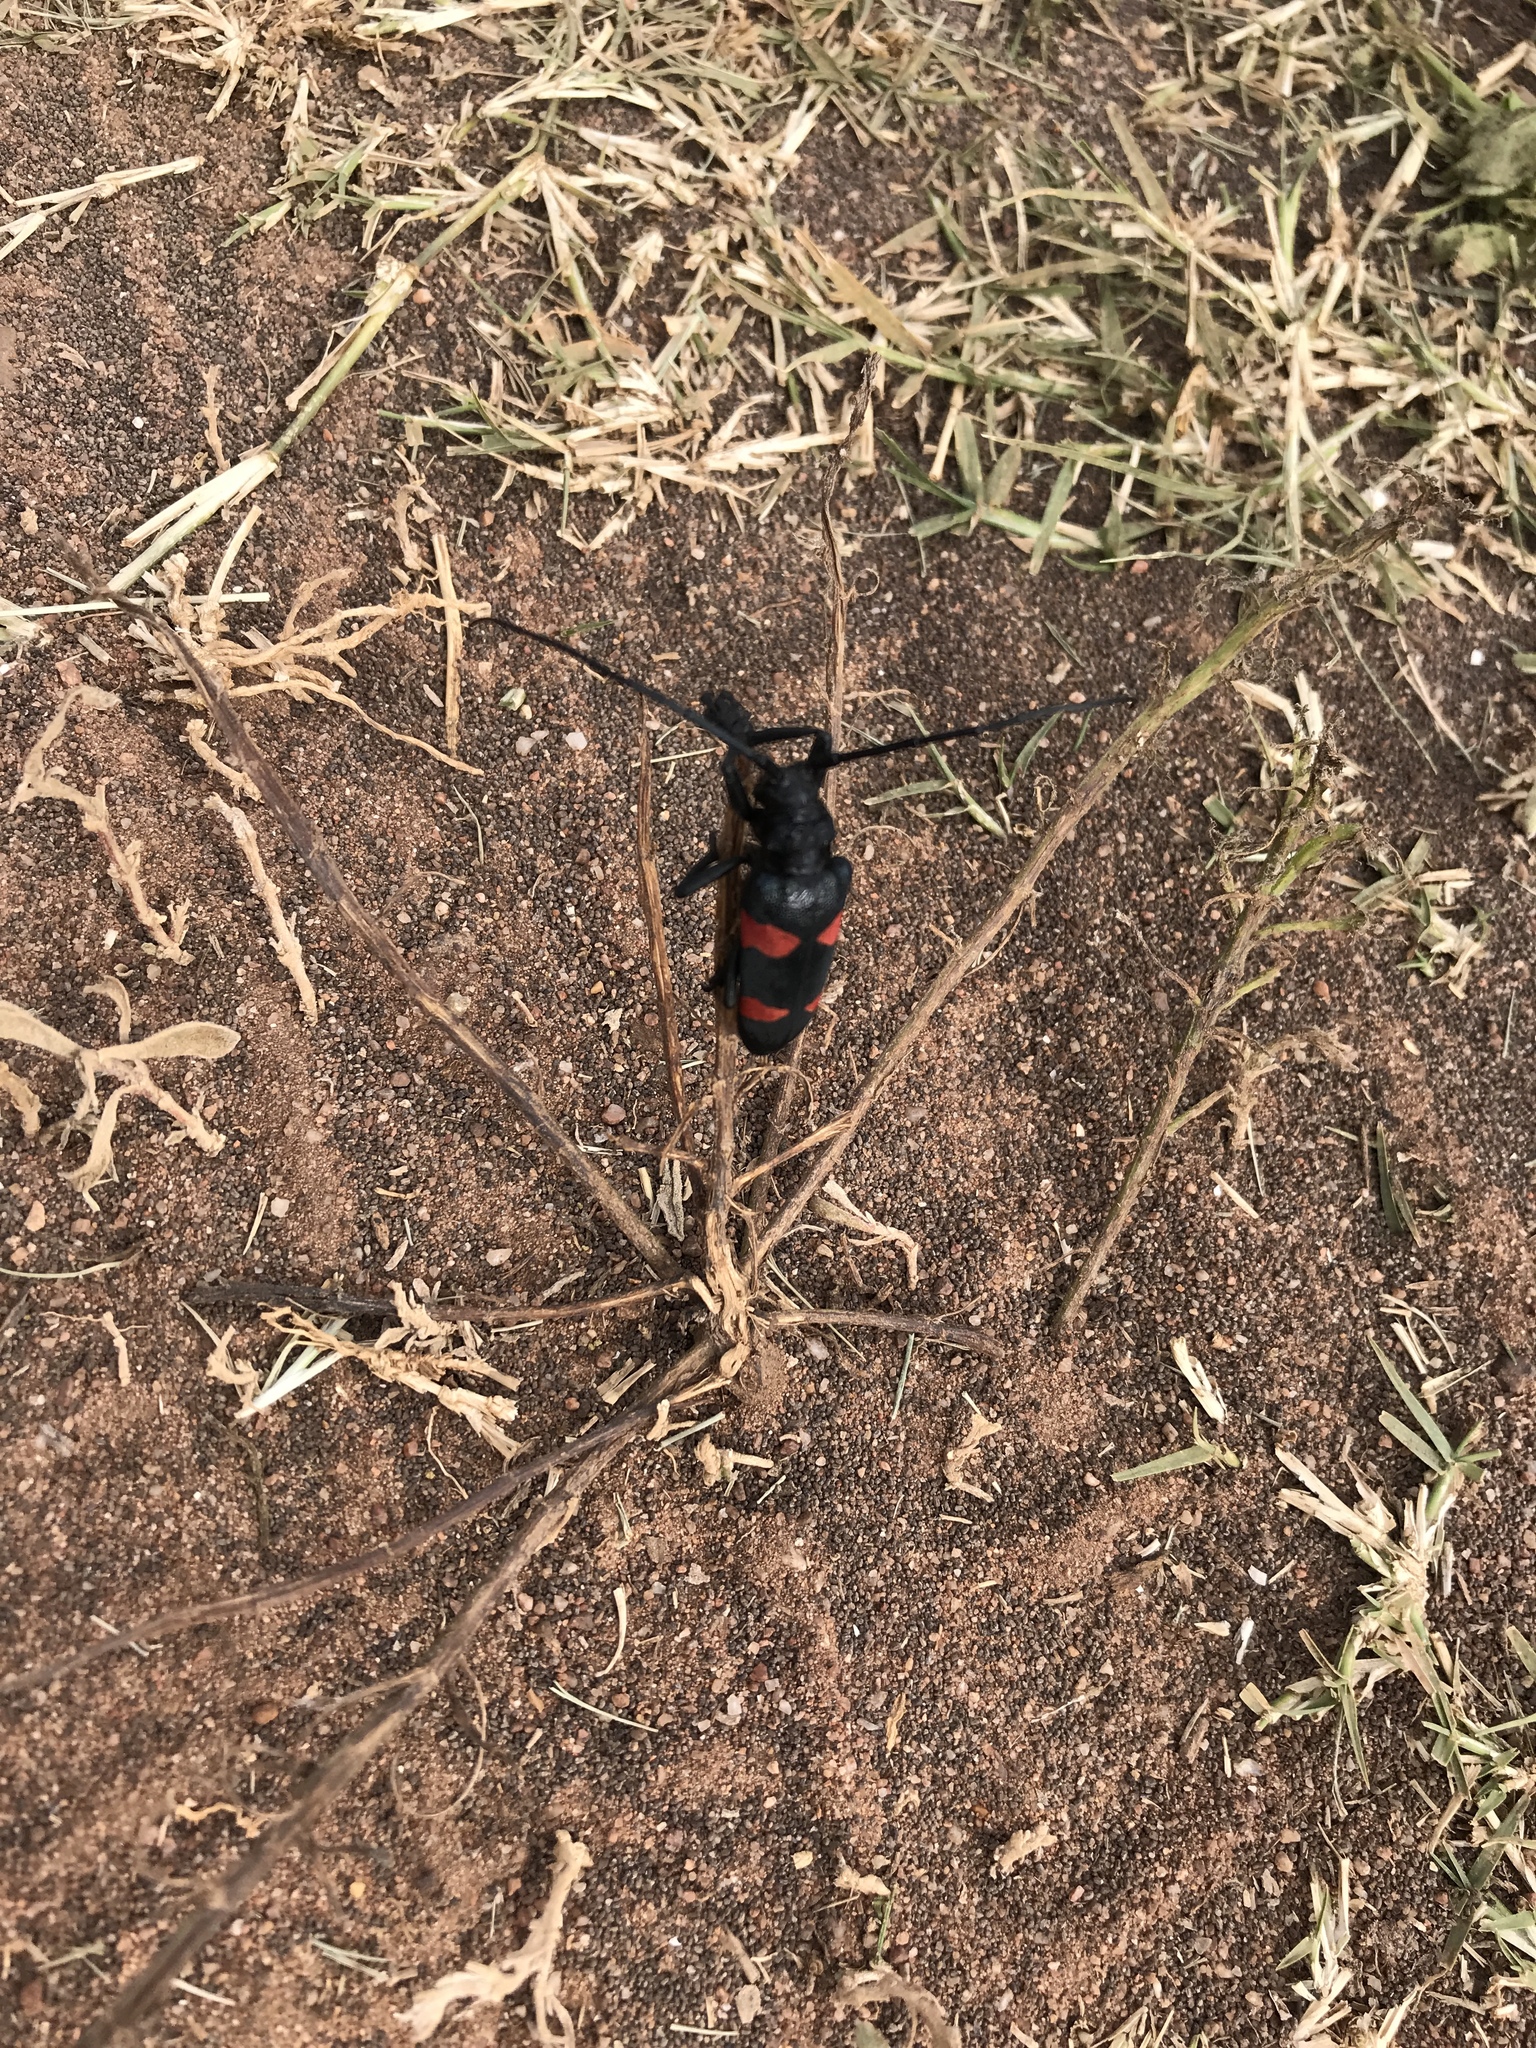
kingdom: Animalia
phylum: Arthropoda
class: Insecta
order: Coleoptera
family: Cerambycidae
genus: Ceroplesis
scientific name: Ceroplesis aethiops
